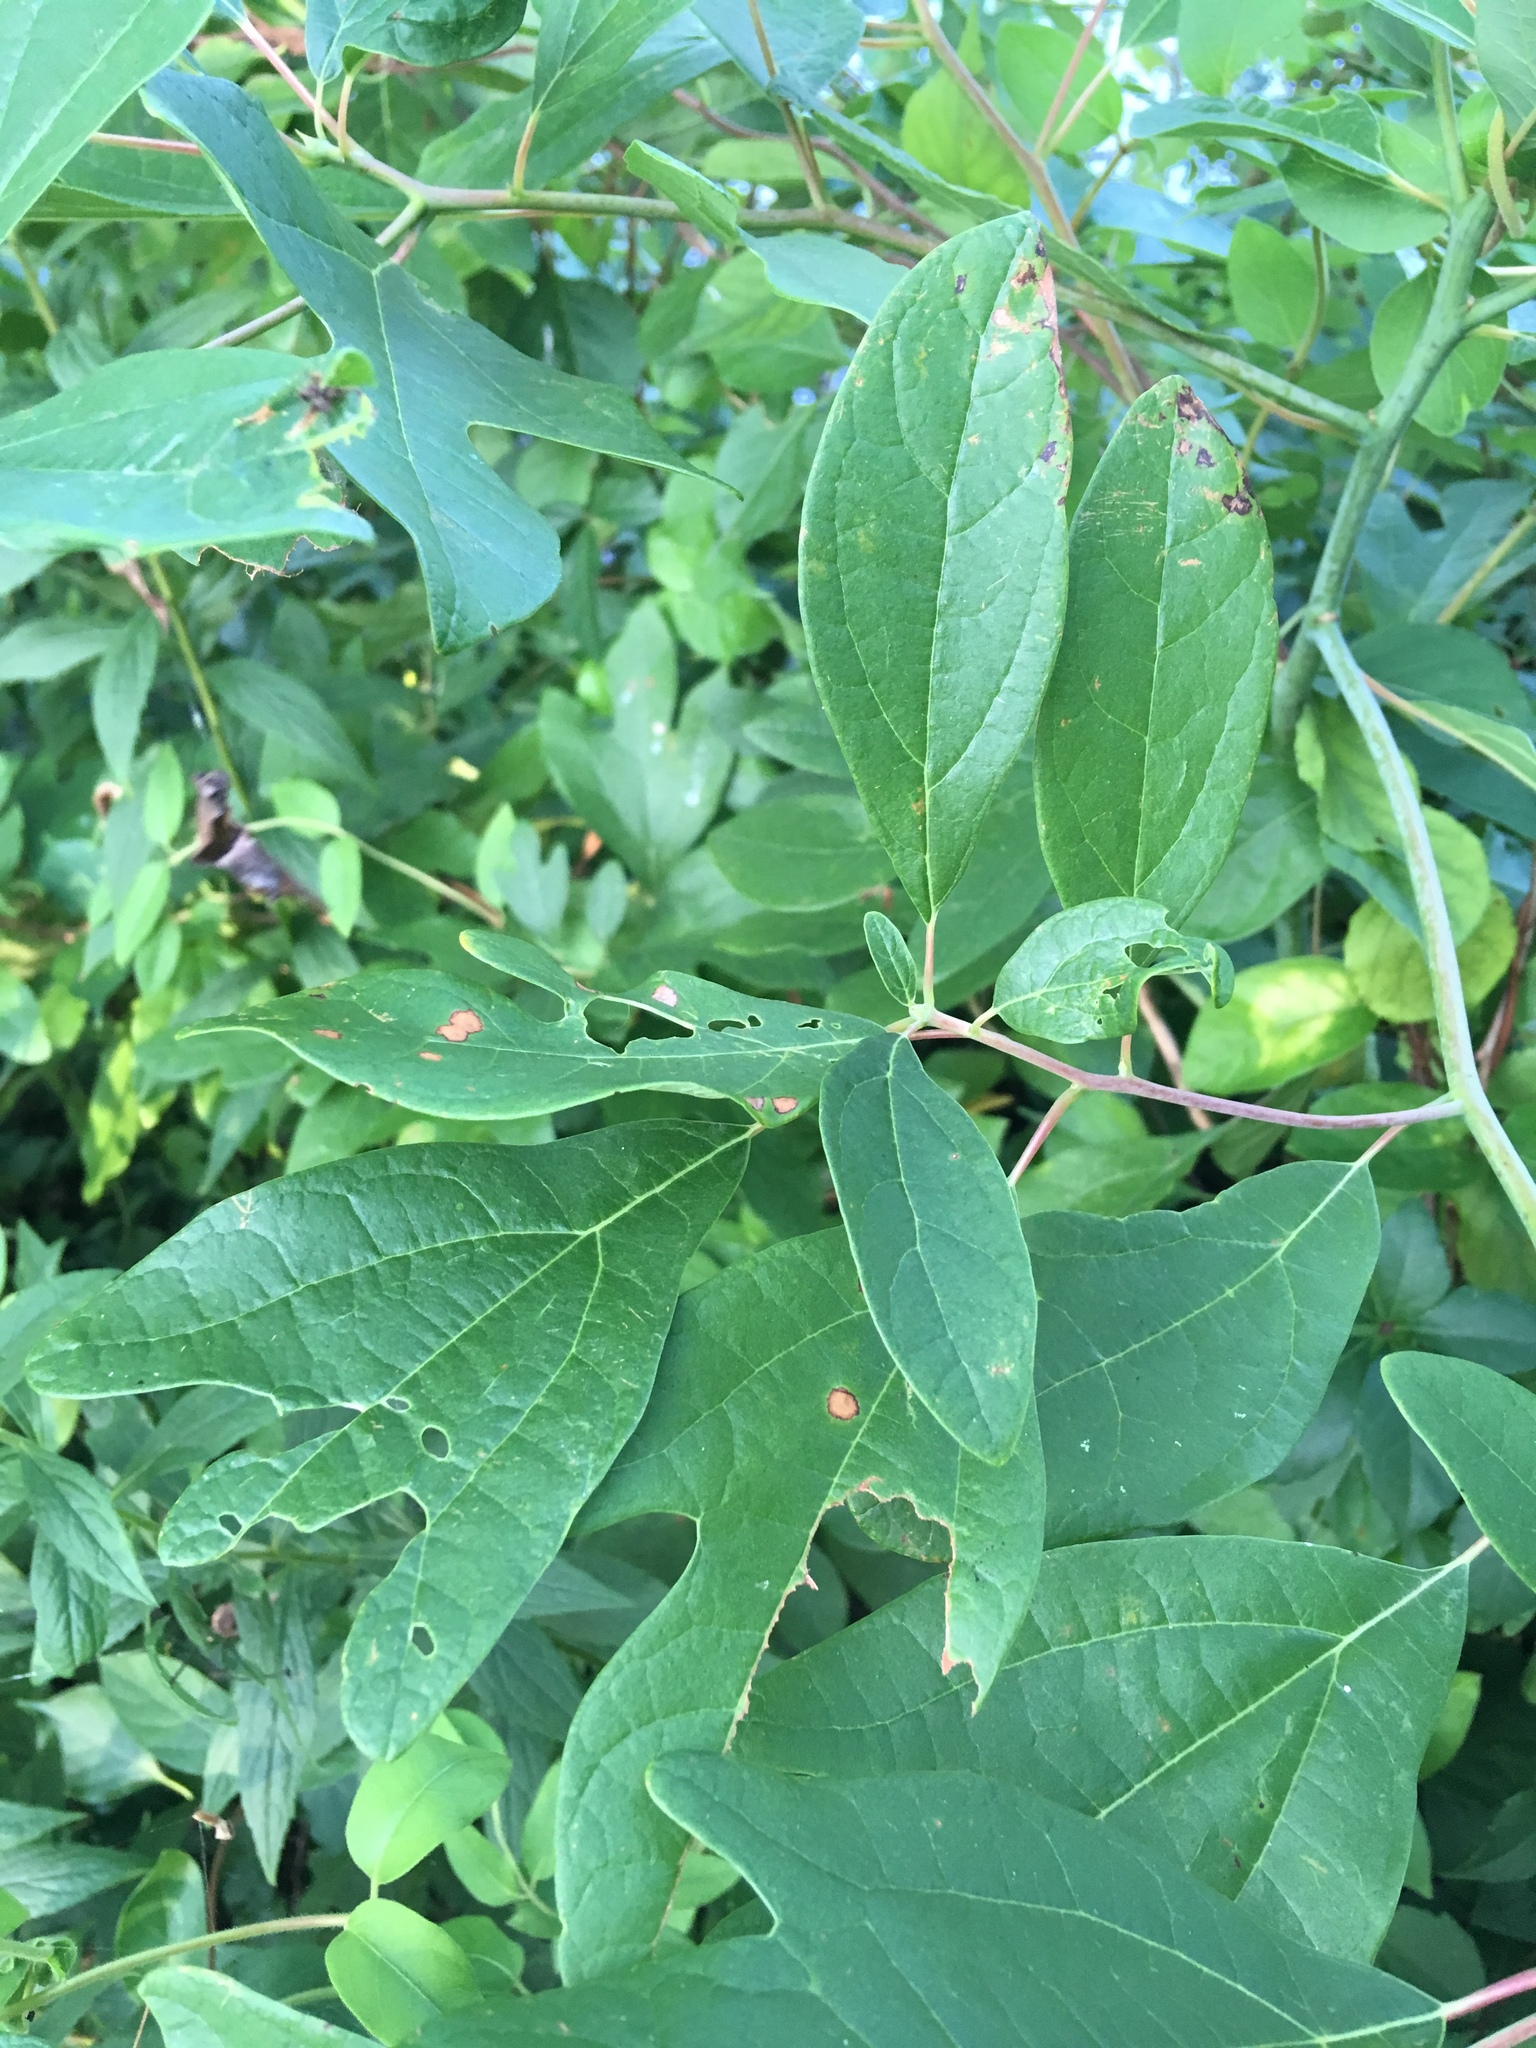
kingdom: Plantae
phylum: Tracheophyta
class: Magnoliopsida
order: Laurales
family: Lauraceae
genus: Sassafras
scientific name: Sassafras albidum
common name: Sassafras
